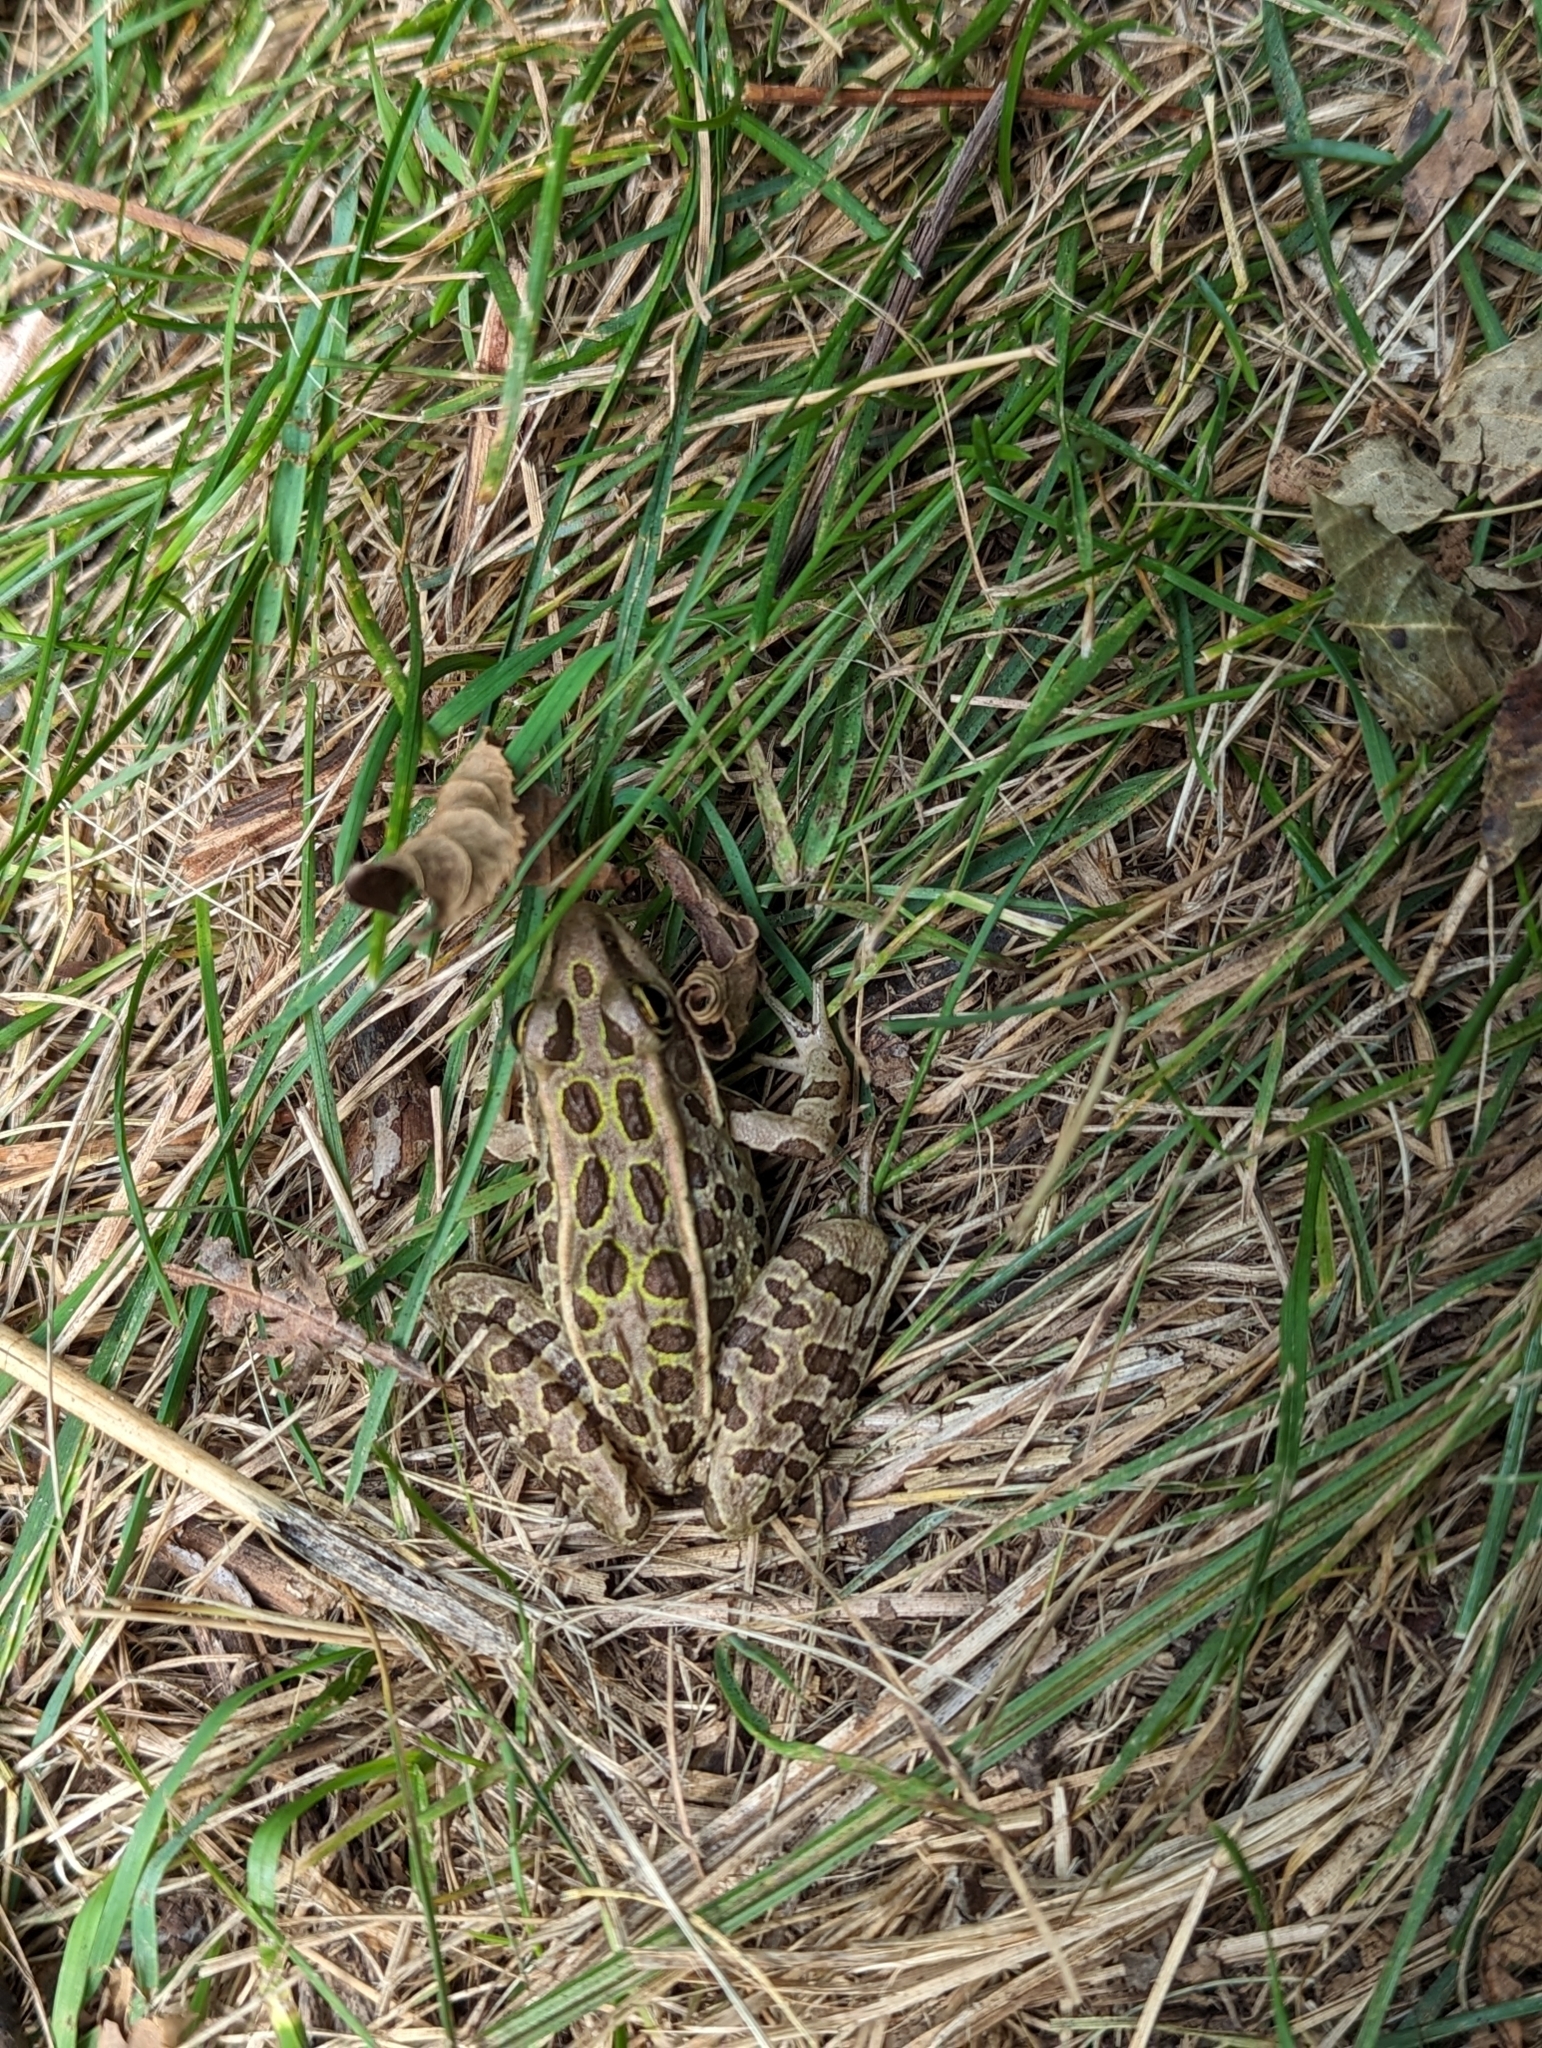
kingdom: Animalia
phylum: Chordata
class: Amphibia
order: Anura
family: Ranidae
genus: Lithobates
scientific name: Lithobates pipiens
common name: Northern leopard frog
